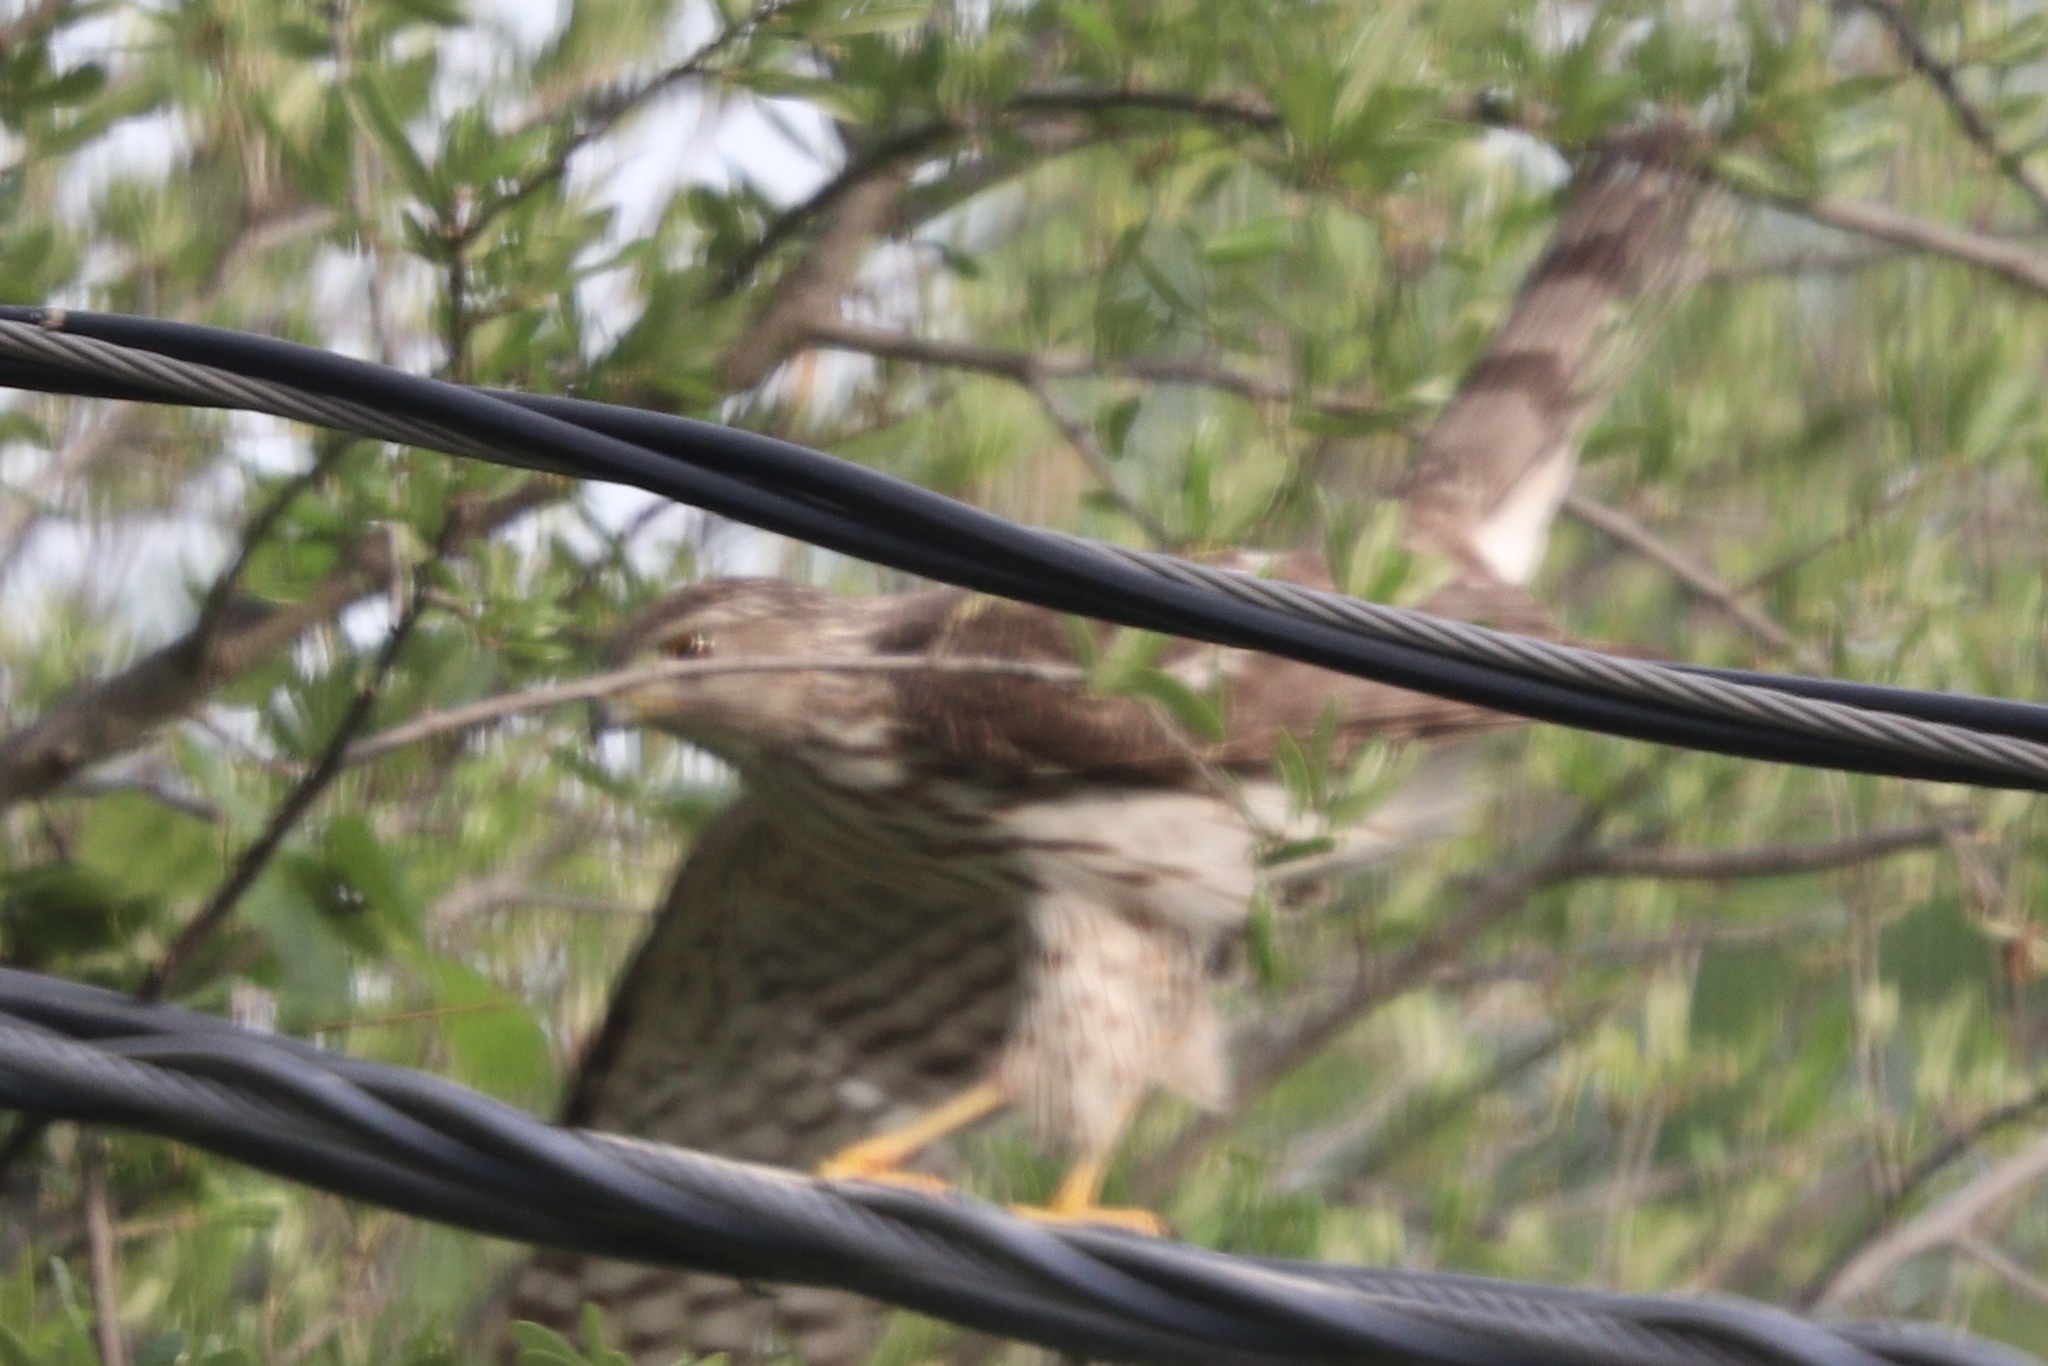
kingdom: Animalia
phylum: Chordata
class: Aves
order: Accipitriformes
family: Accipitridae
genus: Accipiter
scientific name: Accipiter cooperii
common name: Cooper's hawk
